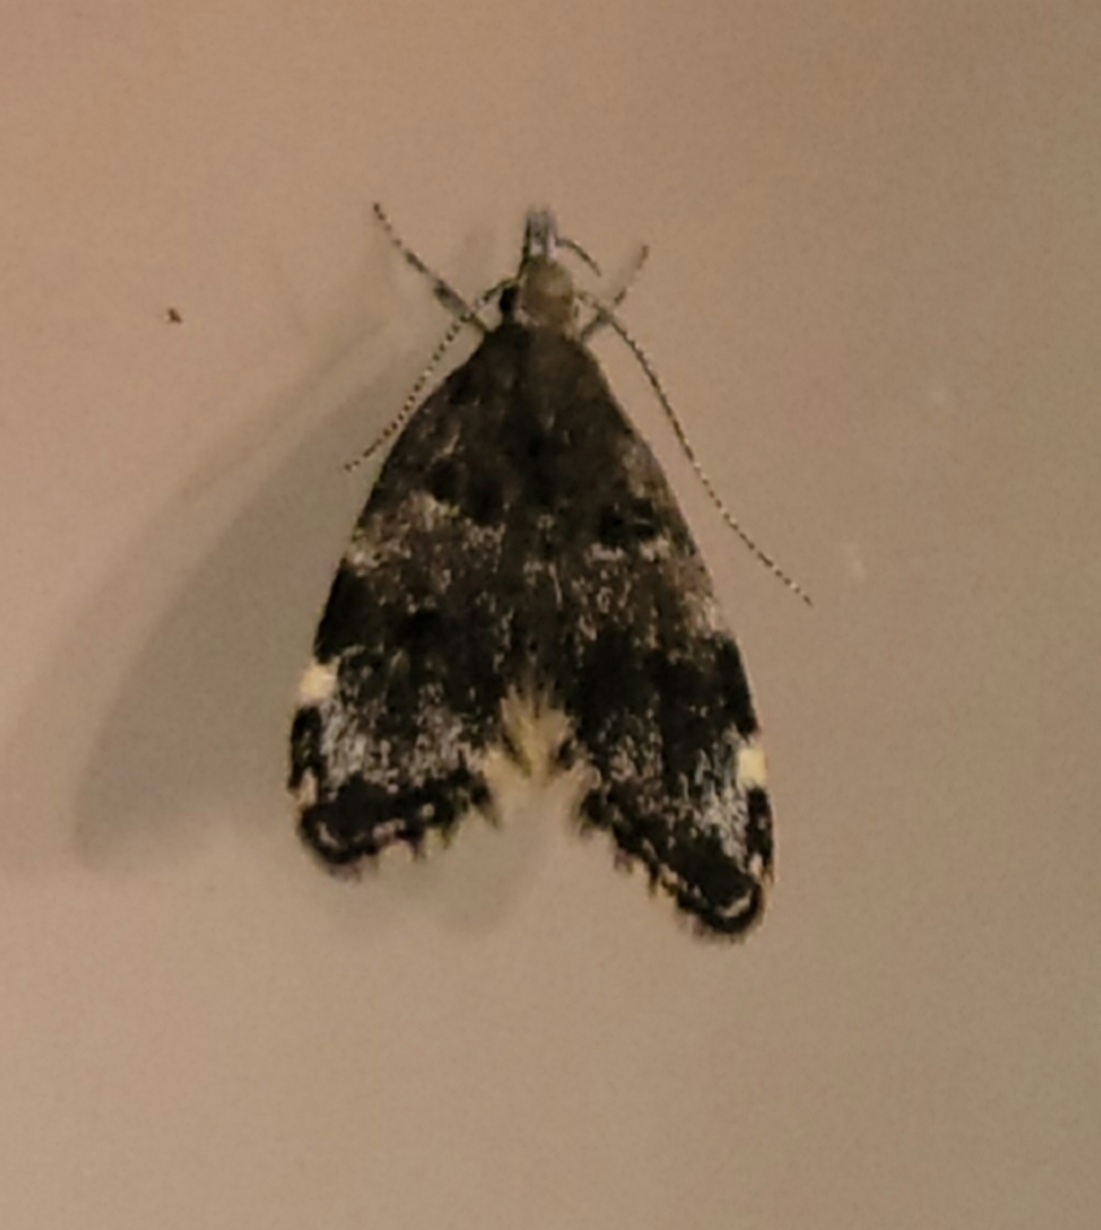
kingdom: Animalia
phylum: Arthropoda
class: Insecta
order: Lepidoptera
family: Oecophoridae
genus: Eido
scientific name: Eido trimaculella
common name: Three-spotted concealer
